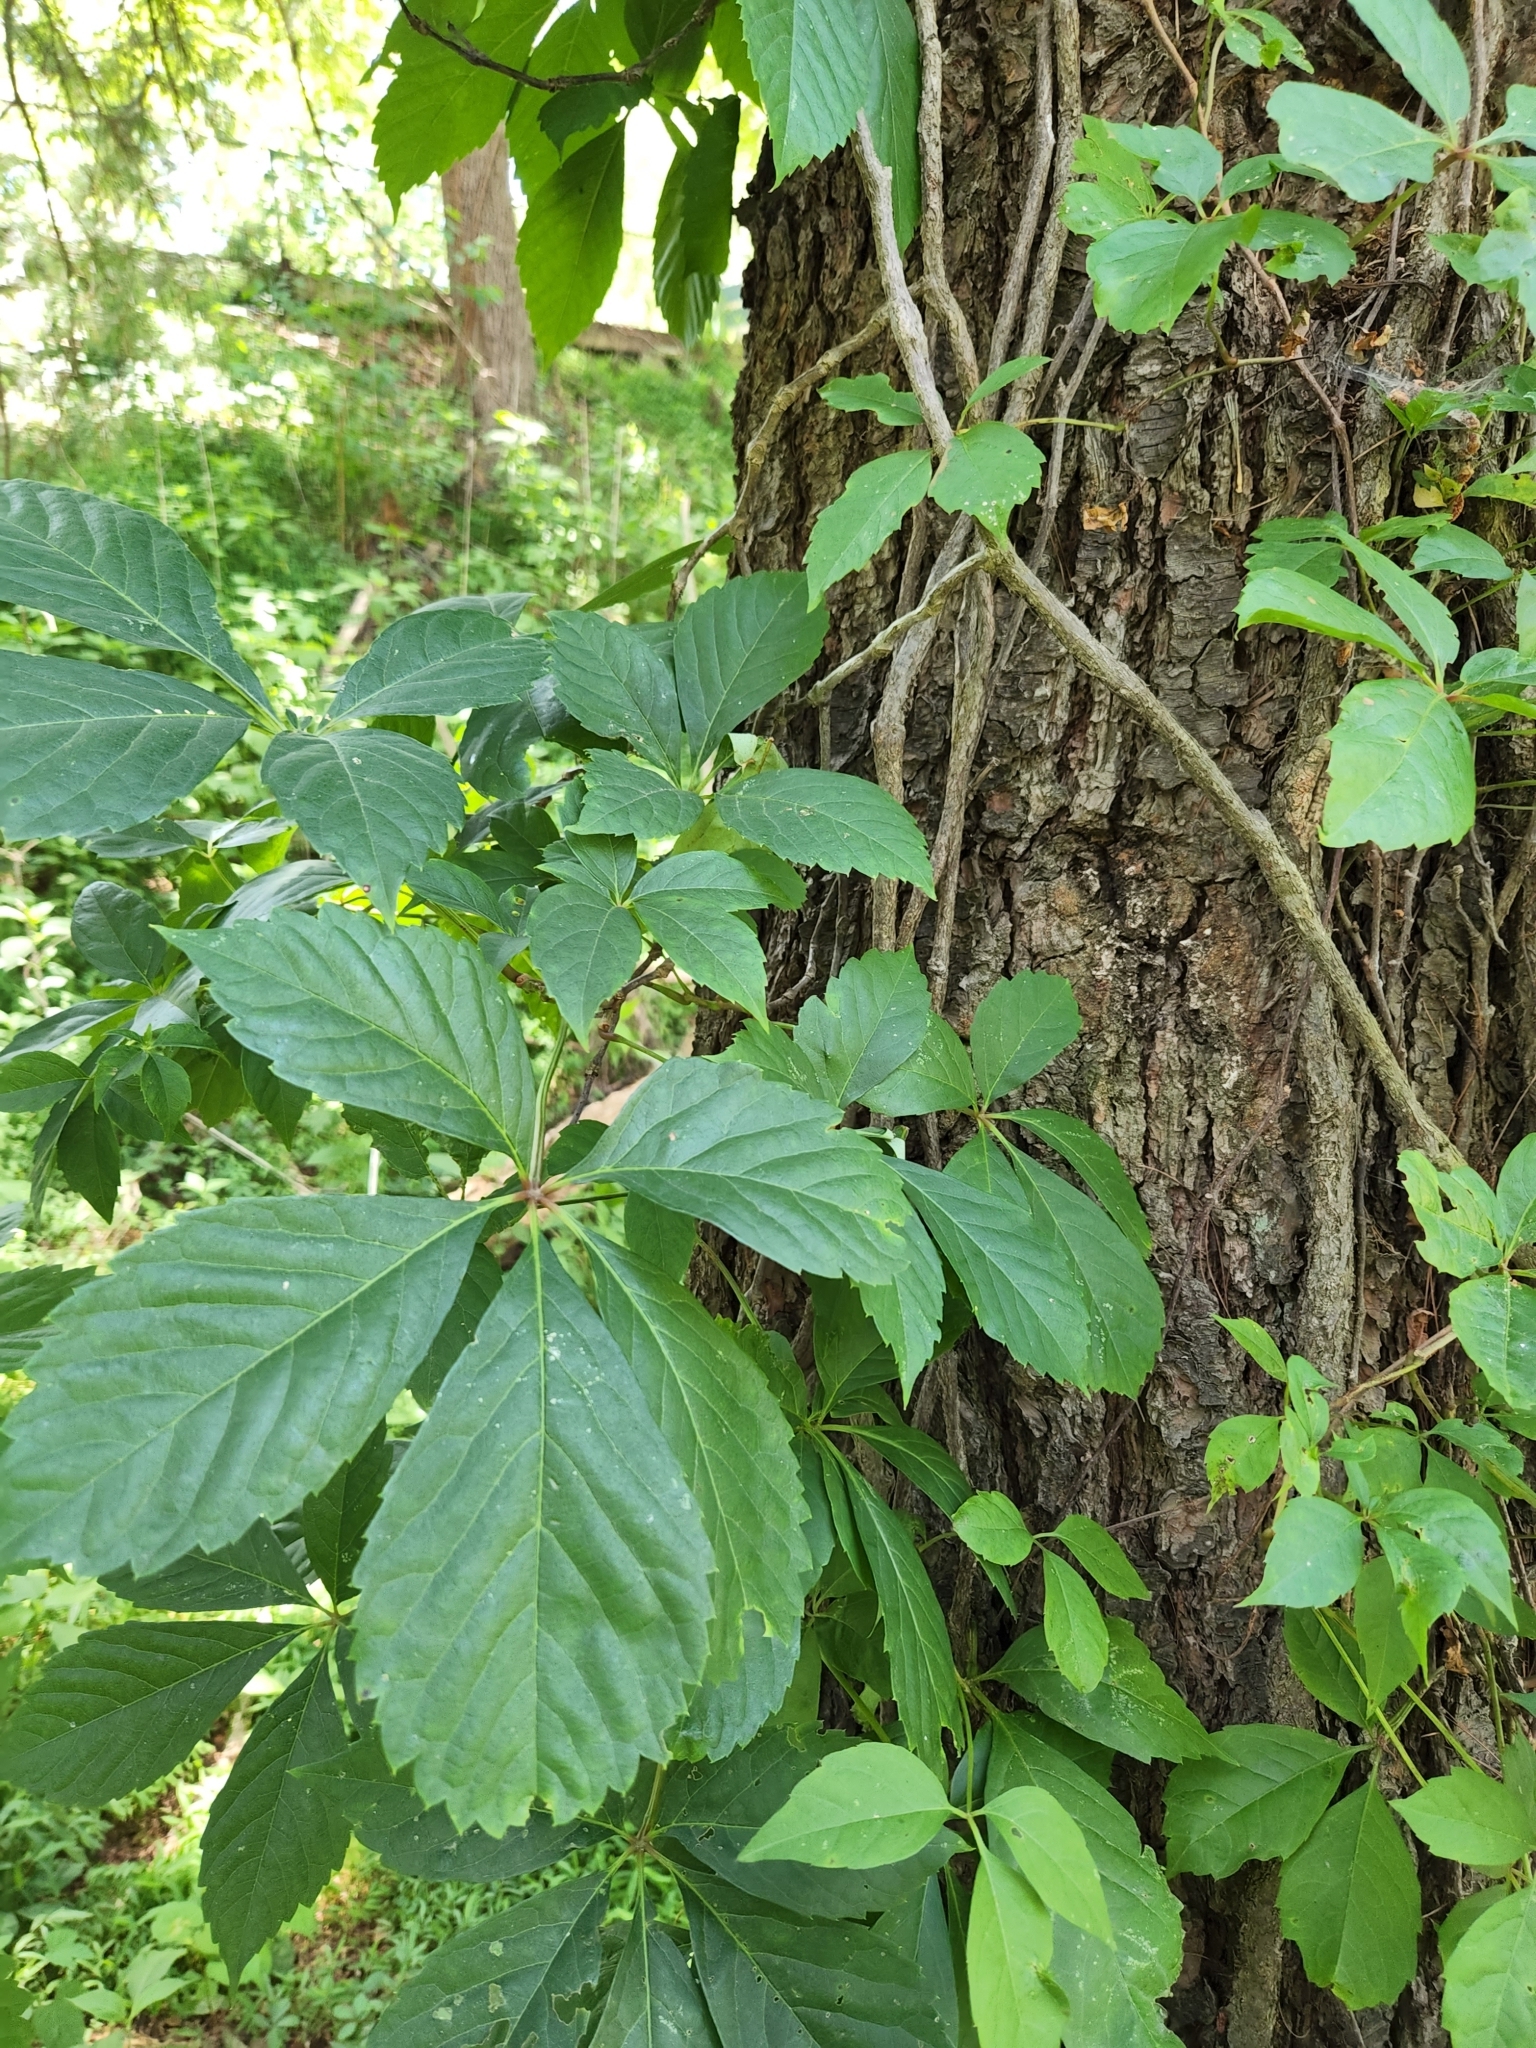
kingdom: Plantae
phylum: Tracheophyta
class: Magnoliopsida
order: Vitales
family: Vitaceae
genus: Parthenocissus
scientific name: Parthenocissus quinquefolia
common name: Virginia-creeper
